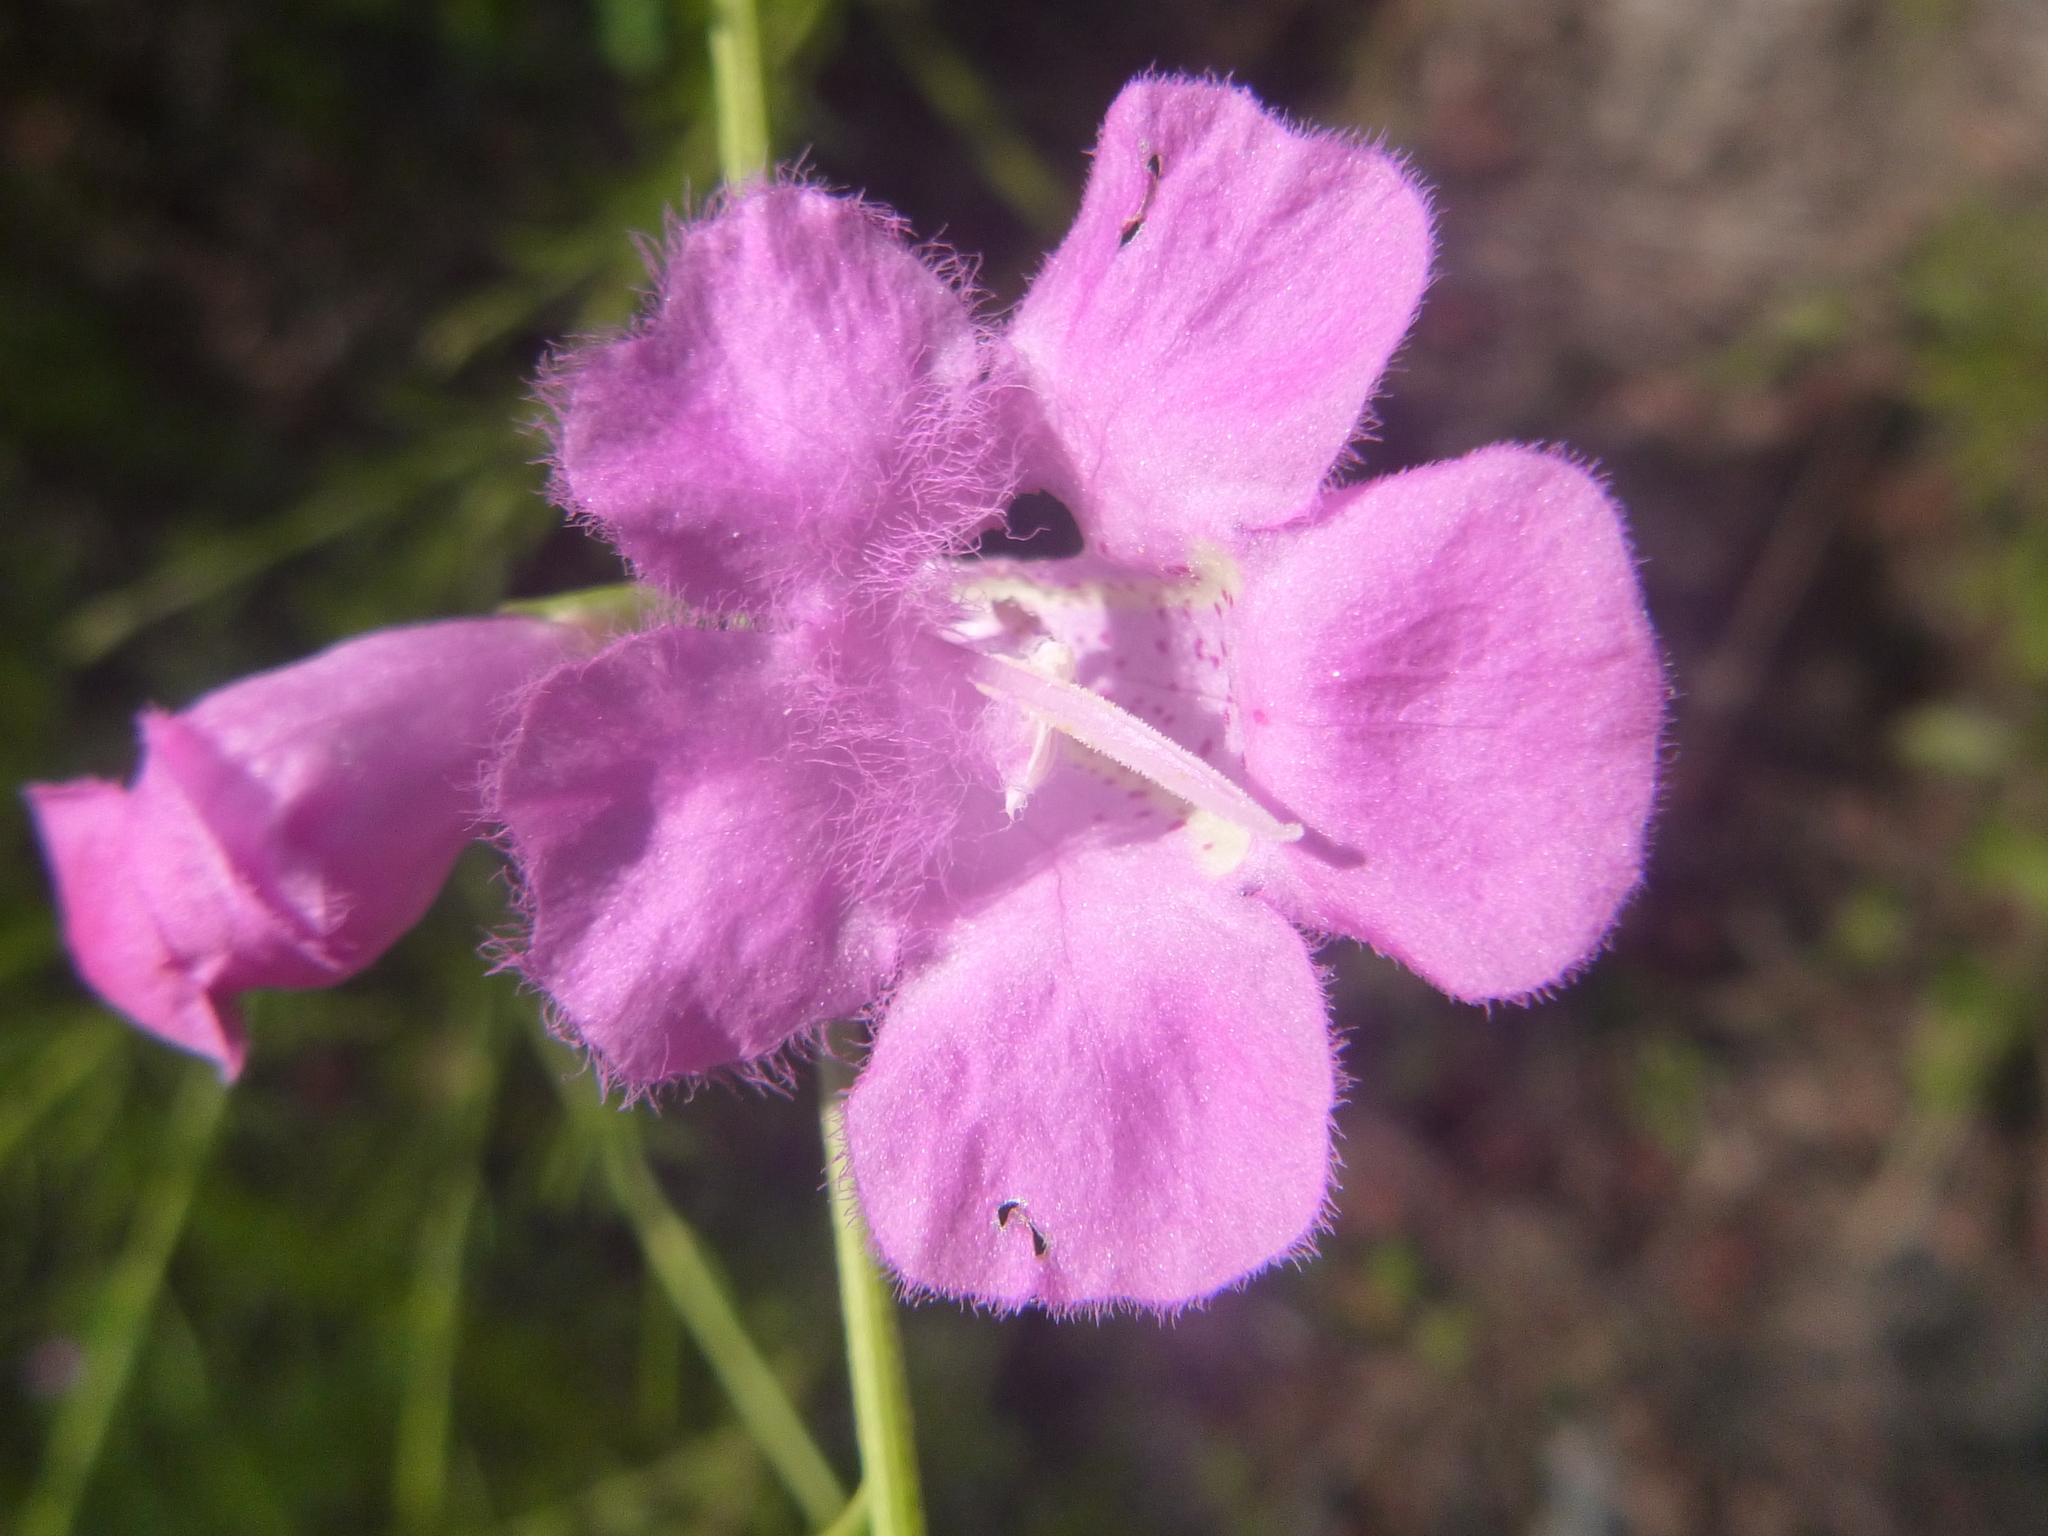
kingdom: Plantae
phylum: Tracheophyta
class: Magnoliopsida
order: Lamiales
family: Orobanchaceae
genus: Agalinis
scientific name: Agalinis fasciculata
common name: Beach false foxglove
